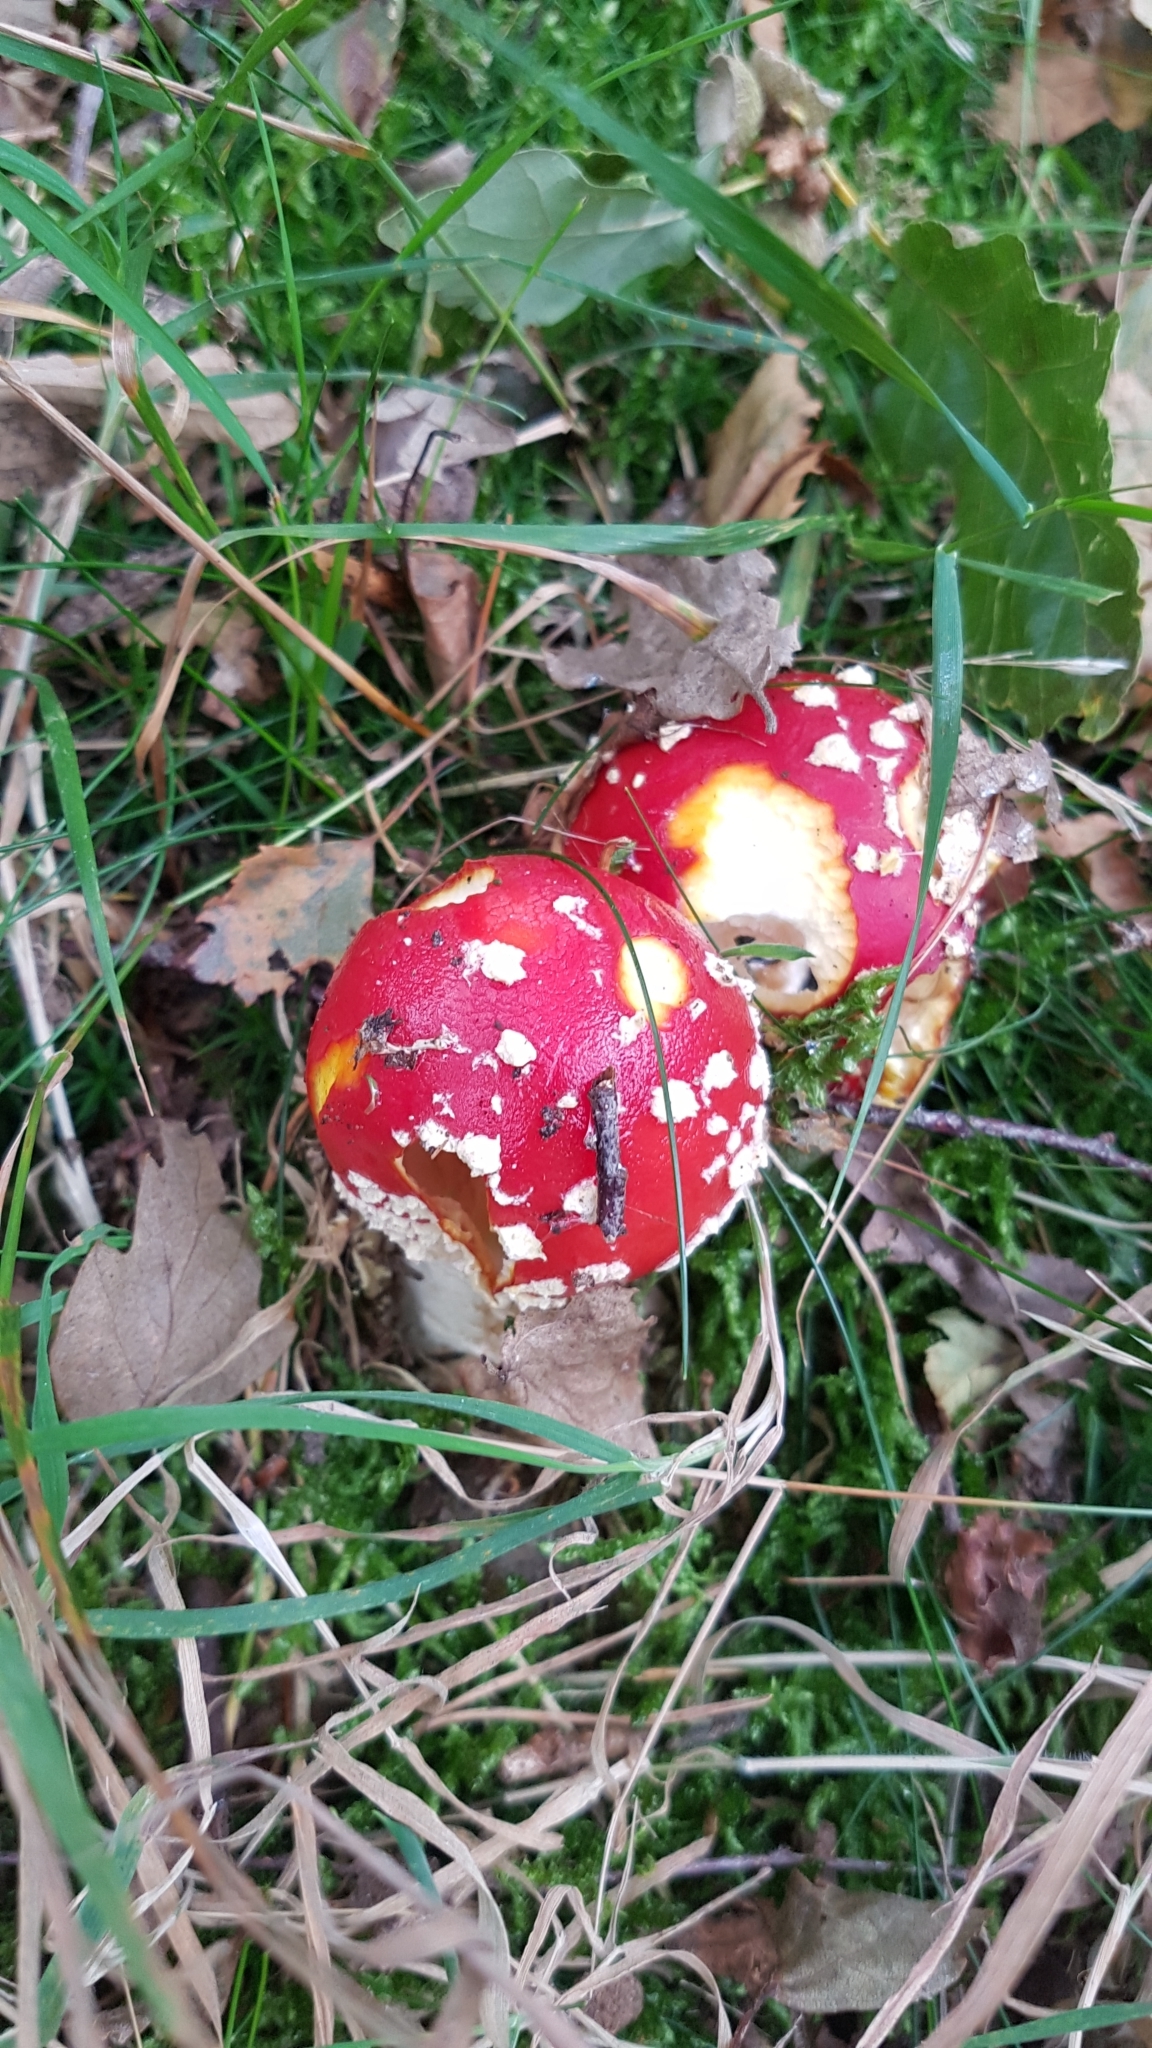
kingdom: Fungi
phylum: Basidiomycota
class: Agaricomycetes
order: Agaricales
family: Amanitaceae
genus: Amanita
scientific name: Amanita muscaria
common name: Fly agaric
